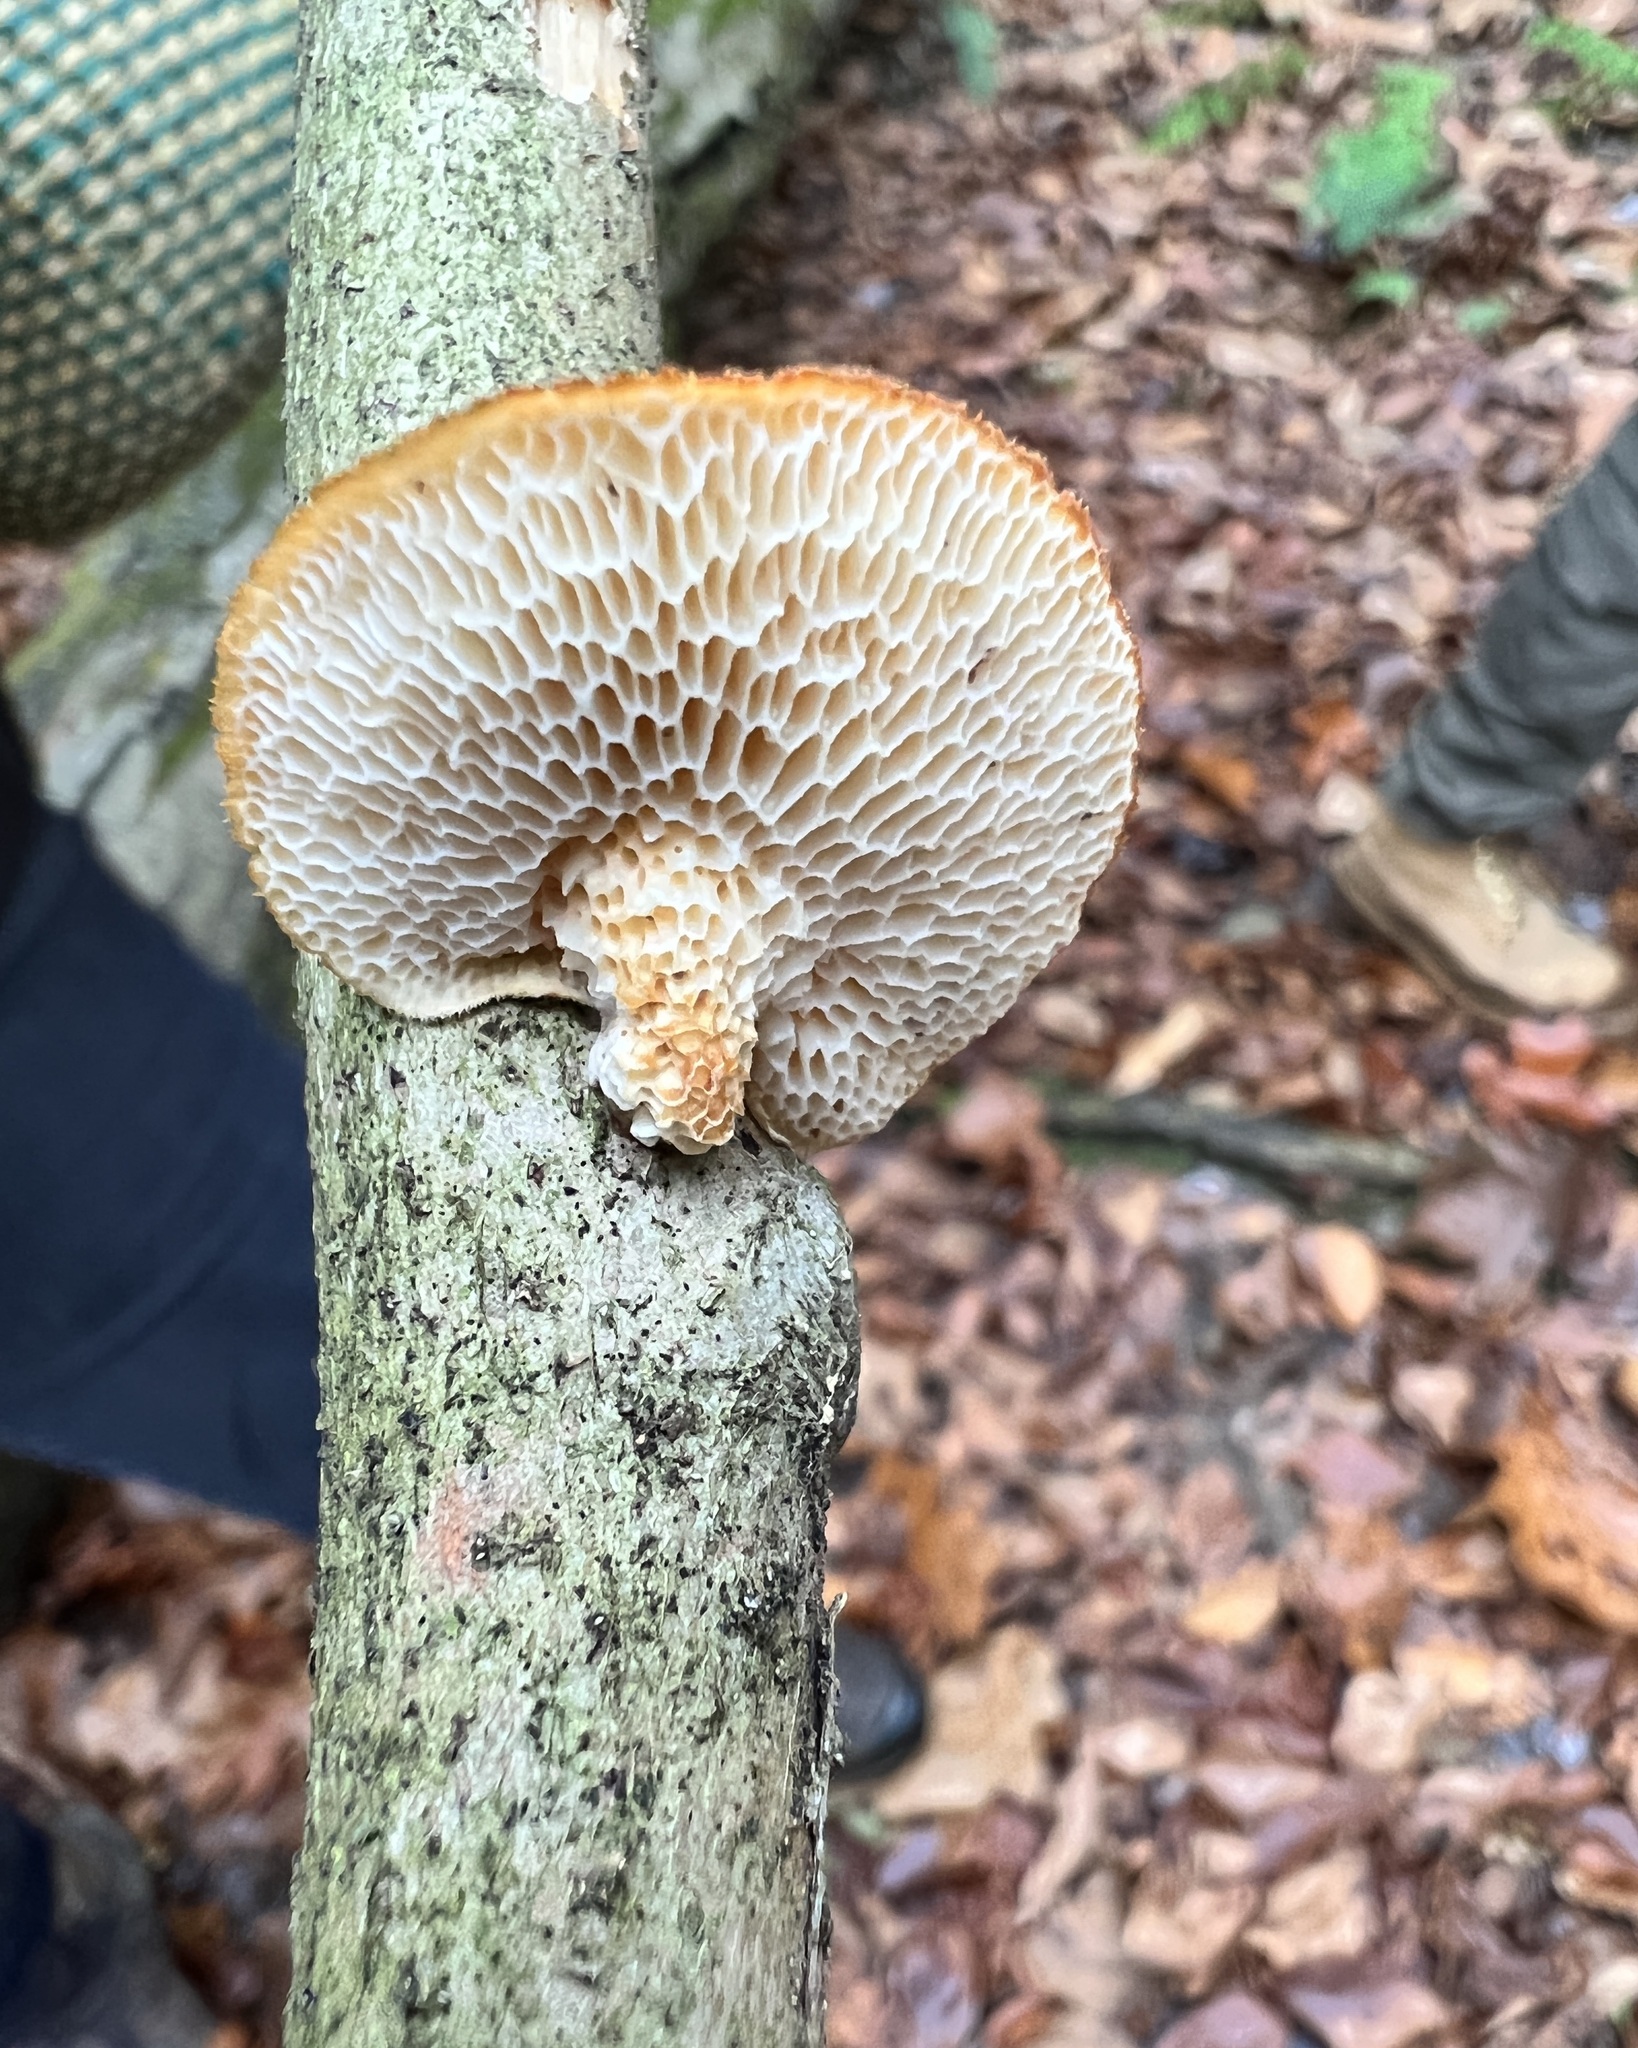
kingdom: Fungi
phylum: Basidiomycota
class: Agaricomycetes
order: Polyporales
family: Polyporaceae
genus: Neofavolus
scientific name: Neofavolus alveolaris
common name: Hexagonal-pored polypore
